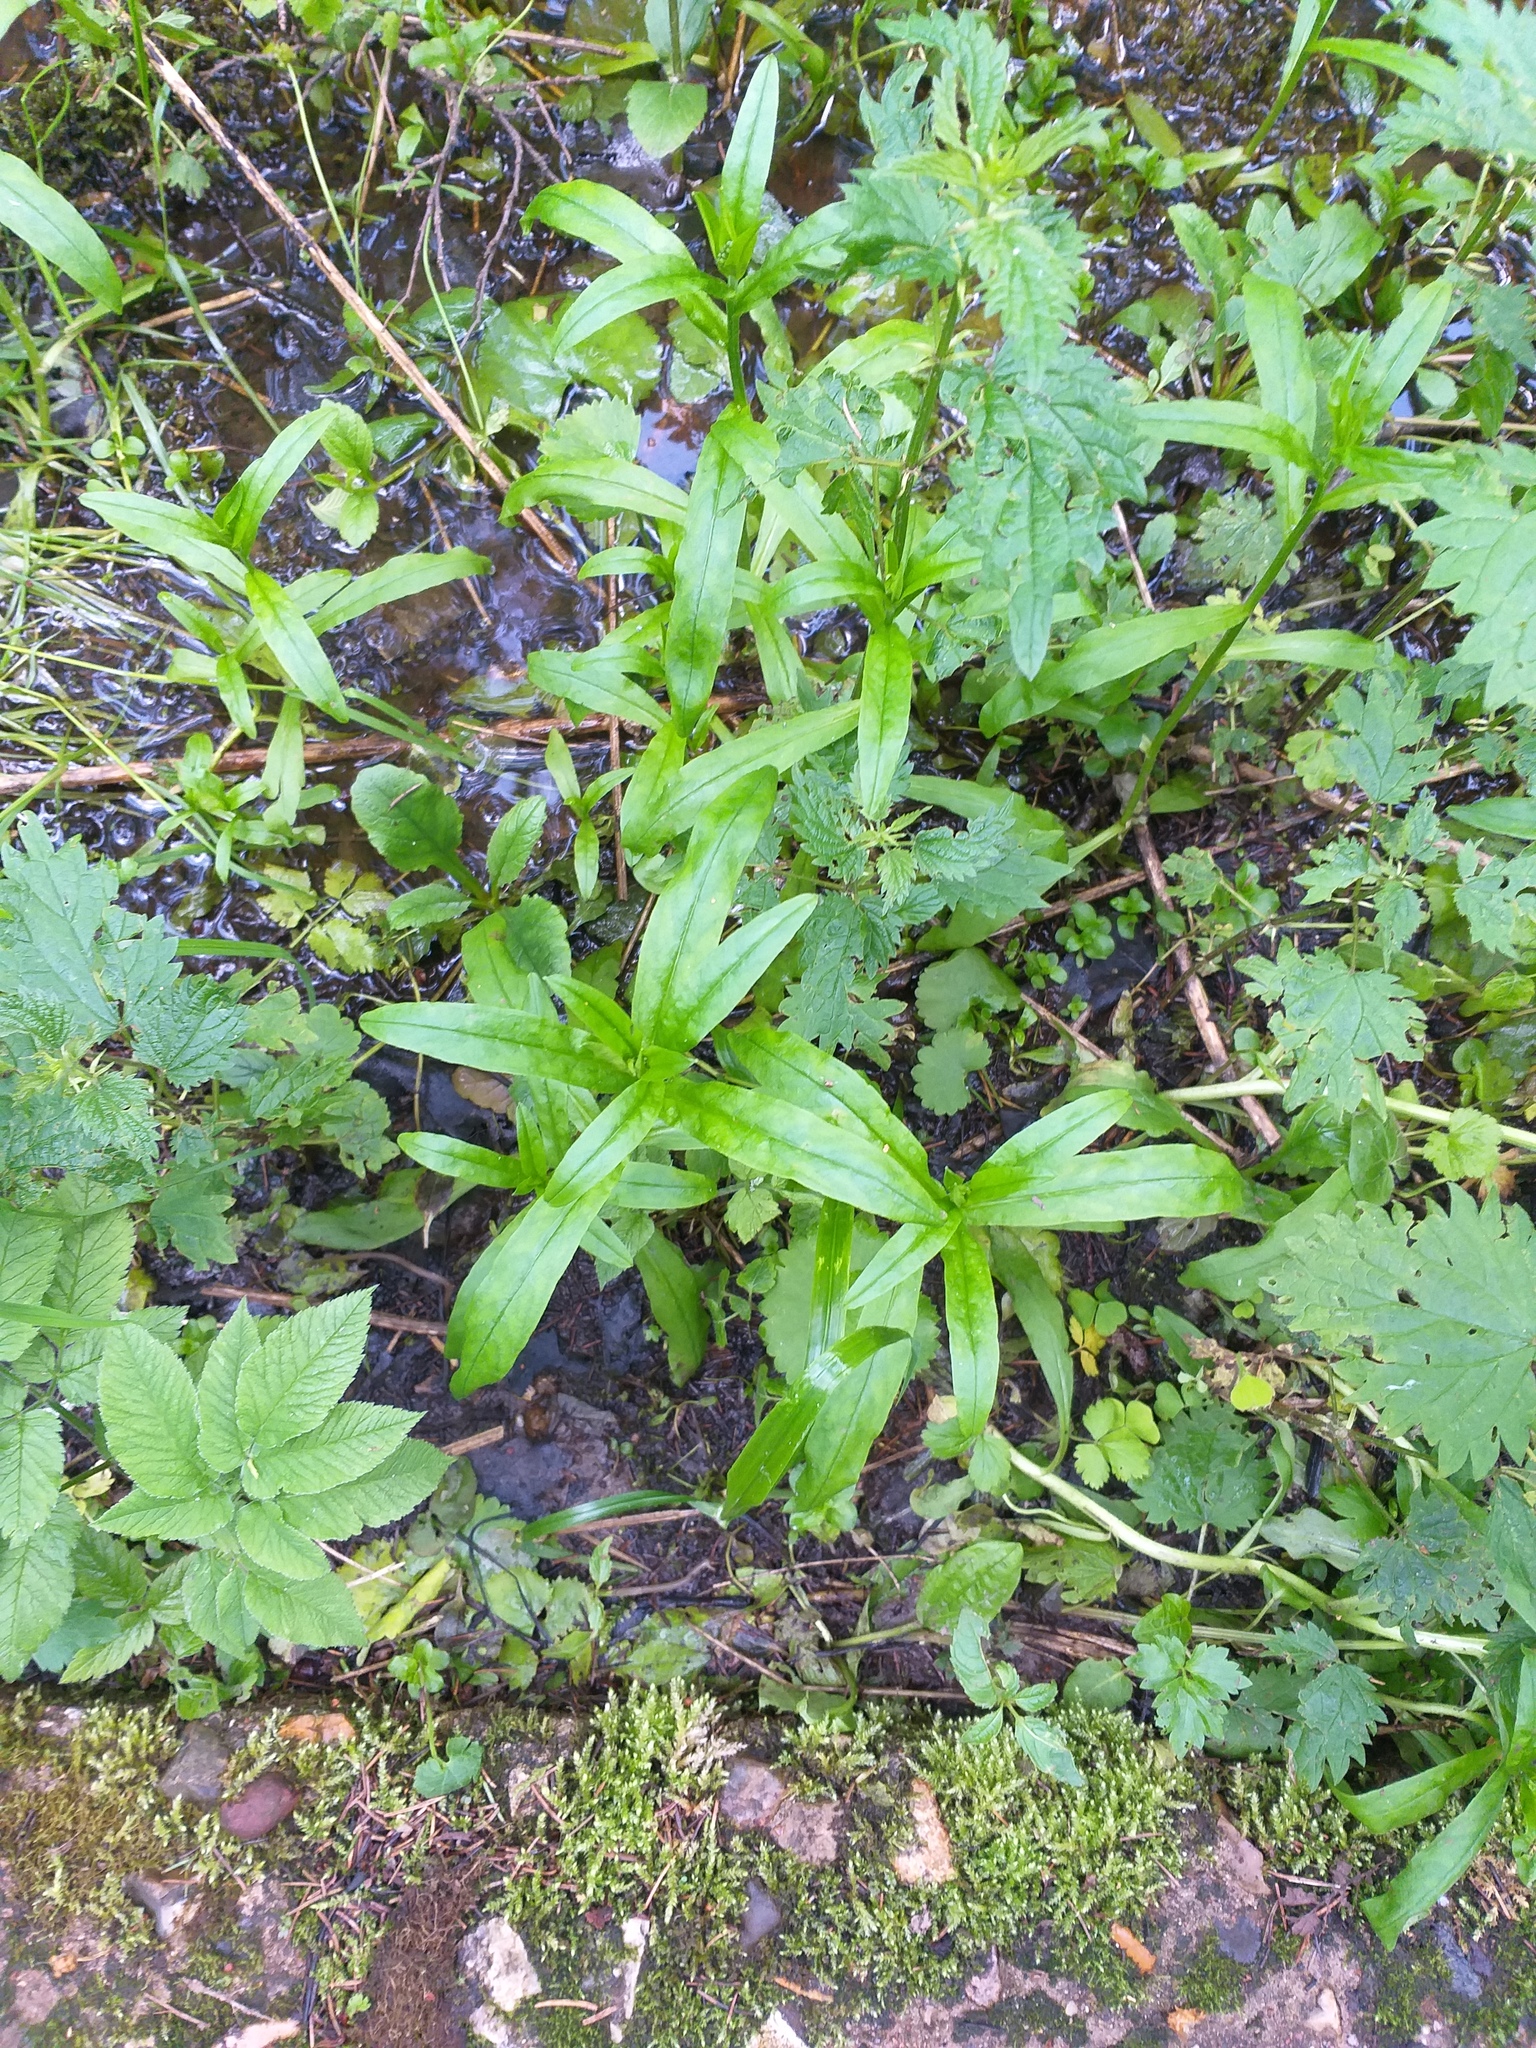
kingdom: Plantae
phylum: Tracheophyta
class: Magnoliopsida
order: Boraginales
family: Boraginaceae
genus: Myosotis
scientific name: Myosotis scorpioides
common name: Water forget-me-not
